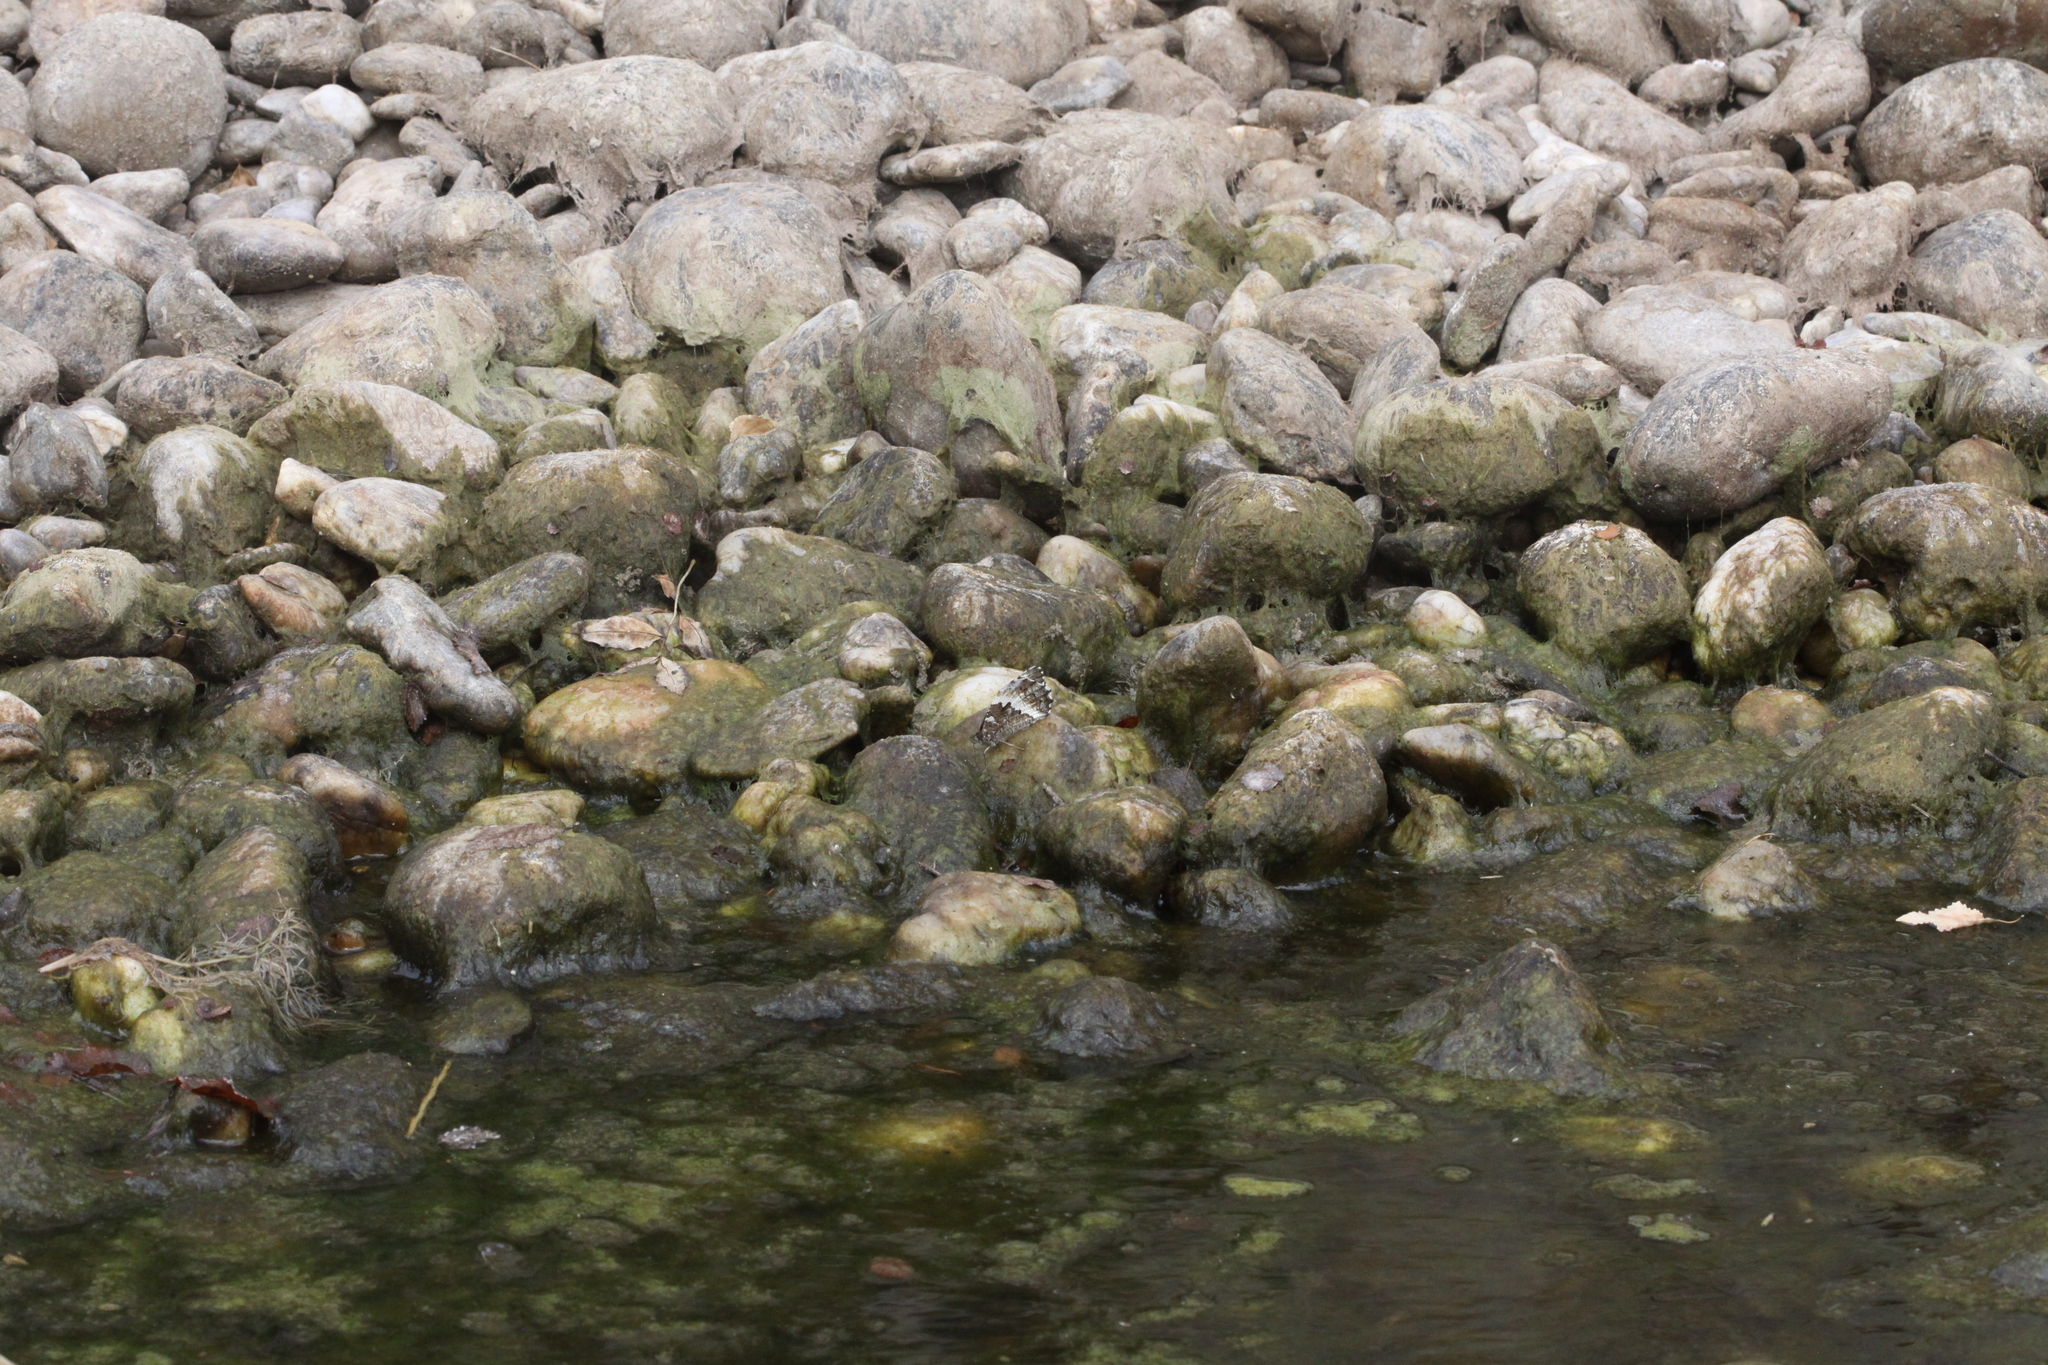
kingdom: Animalia
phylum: Arthropoda
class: Insecta
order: Lepidoptera
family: Lycaenidae
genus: Loweia
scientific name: Loweia tityrus
